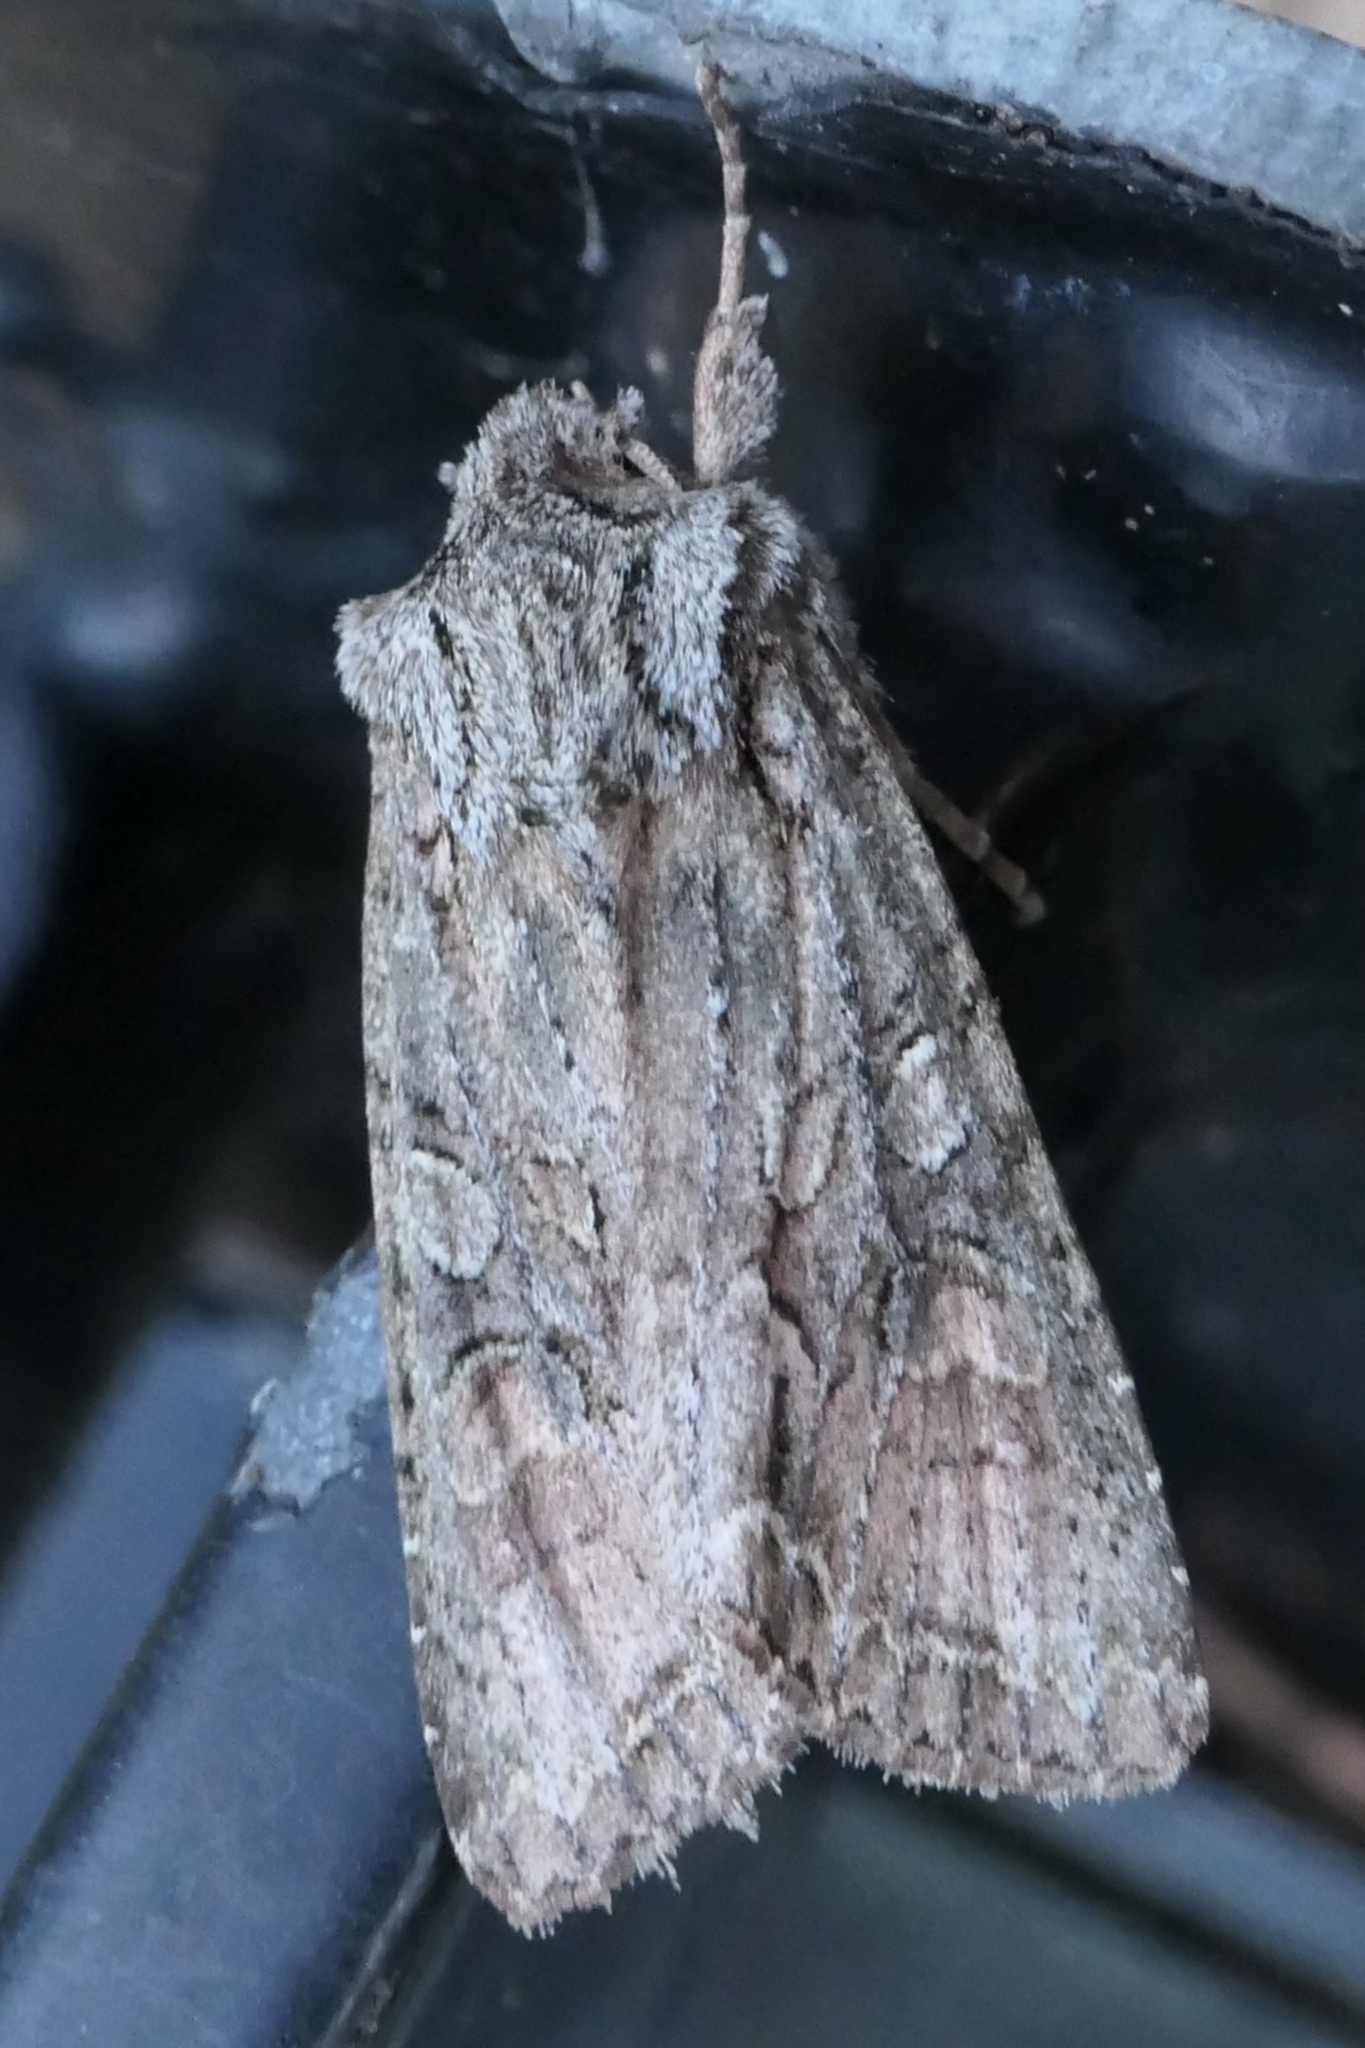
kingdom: Animalia
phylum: Arthropoda
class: Insecta
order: Lepidoptera
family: Noctuidae
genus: Ichneutica
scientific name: Ichneutica mutans
